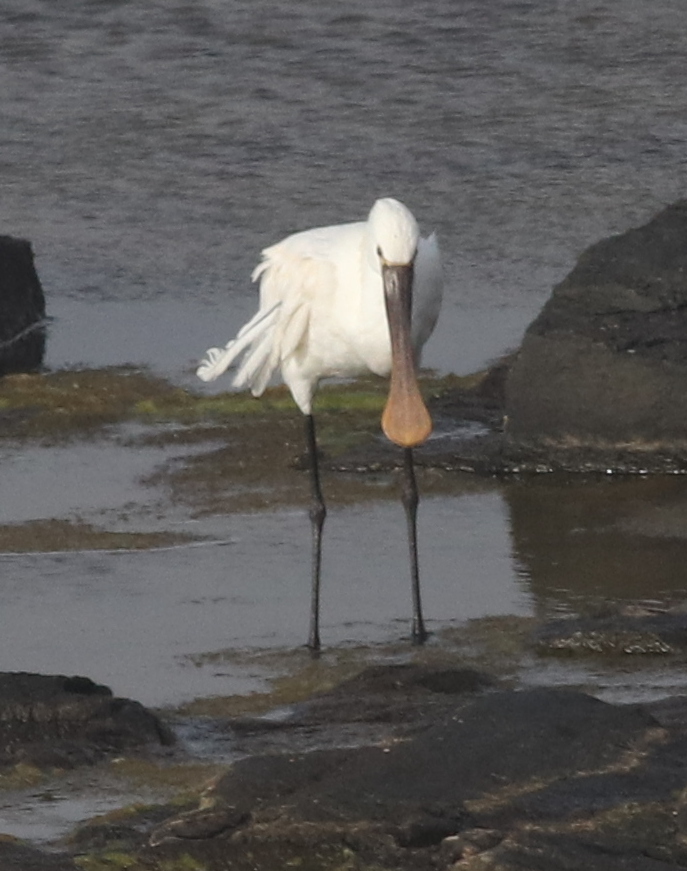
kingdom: Animalia
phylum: Chordata
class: Aves
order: Pelecaniformes
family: Threskiornithidae
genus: Platalea
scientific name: Platalea leucorodia
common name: Eurasian spoonbill
